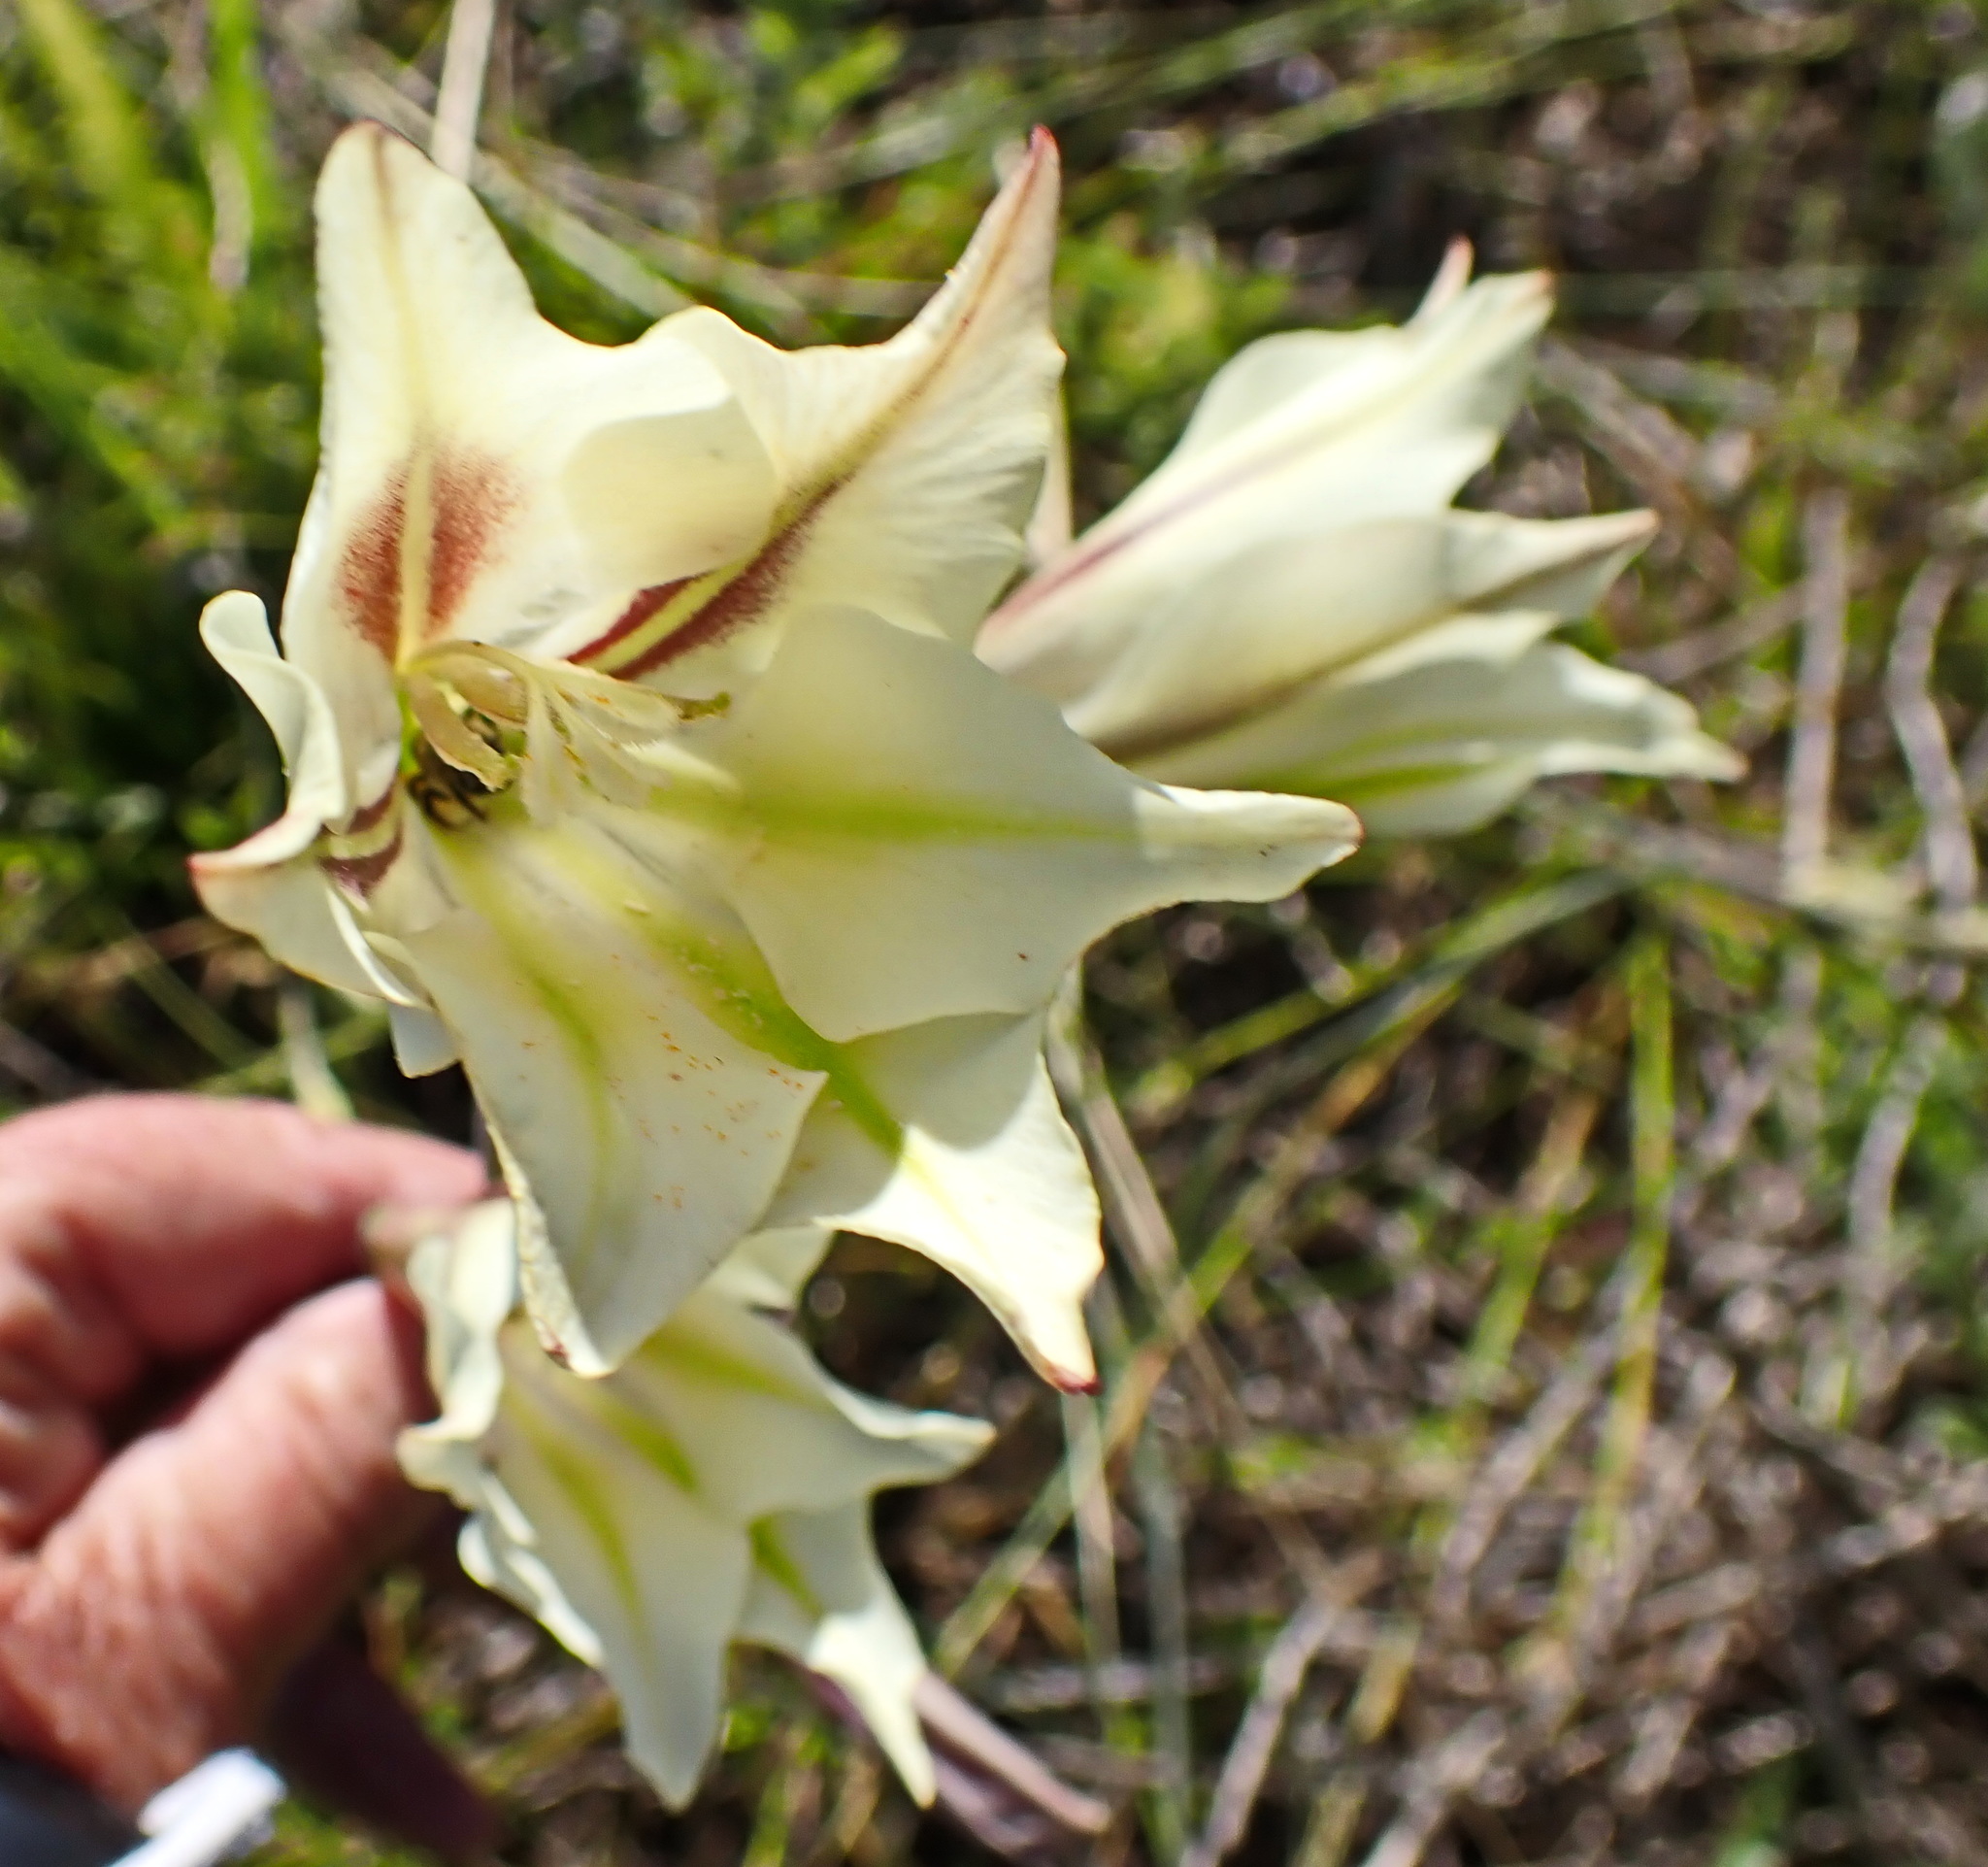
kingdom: Plantae
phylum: Tracheophyta
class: Liliopsida
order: Asparagales
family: Iridaceae
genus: Gladiolus
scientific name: Gladiolus tristis
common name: Ever-flowering gladiolus
